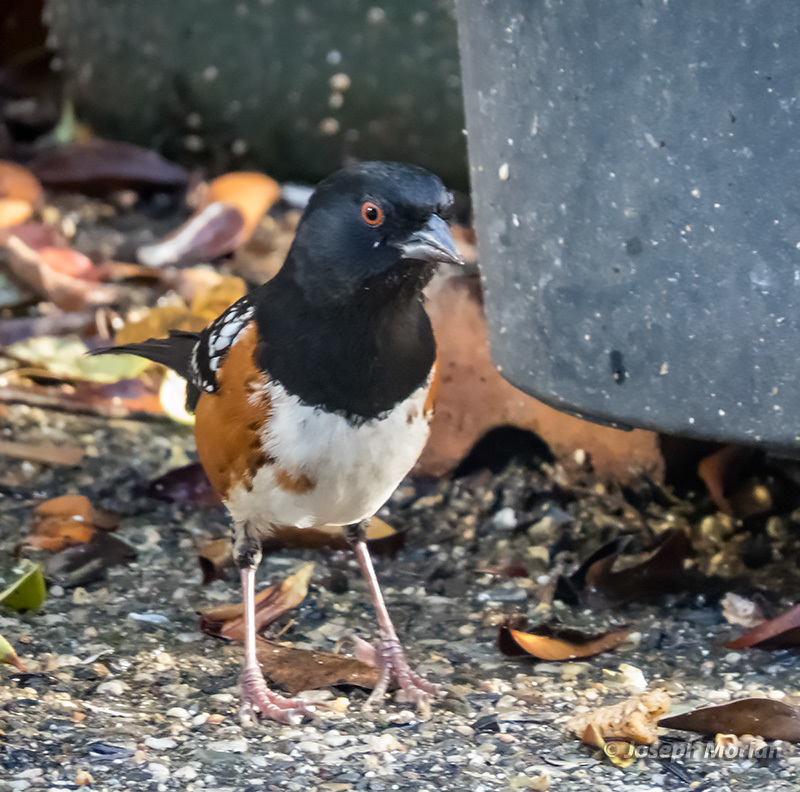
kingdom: Animalia
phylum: Chordata
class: Aves
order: Passeriformes
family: Passerellidae
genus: Pipilo
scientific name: Pipilo maculatus
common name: Spotted towhee
